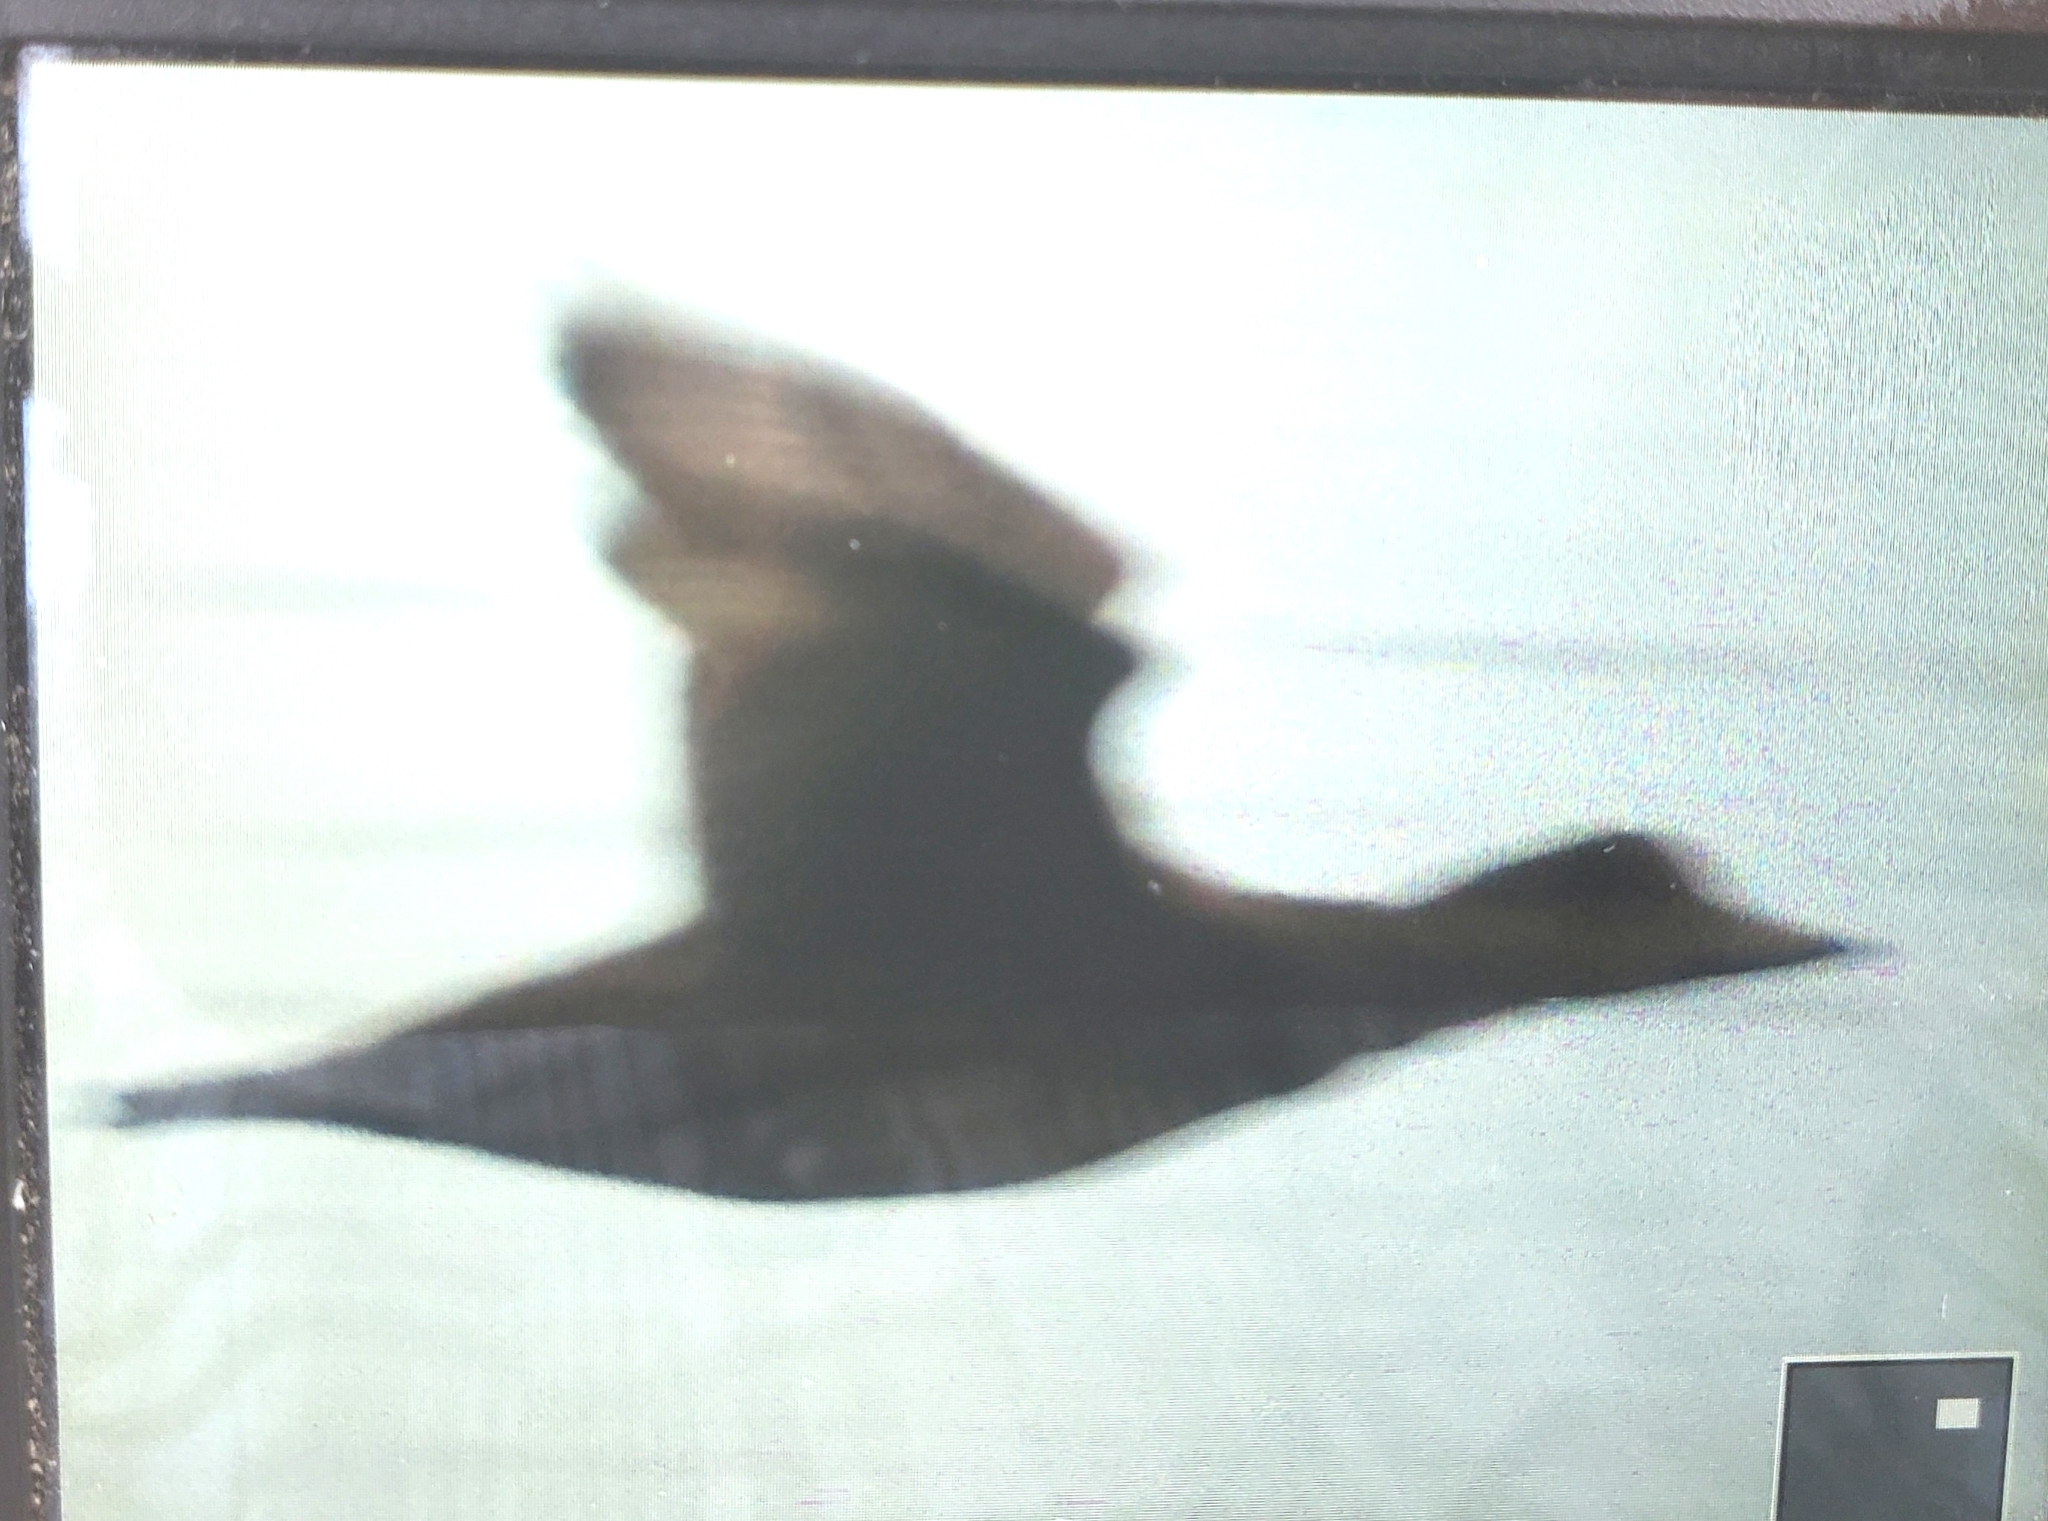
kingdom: Animalia
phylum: Chordata
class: Aves
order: Anseriformes
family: Anatidae
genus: Melanitta
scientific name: Melanitta americana
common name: Black scoter
